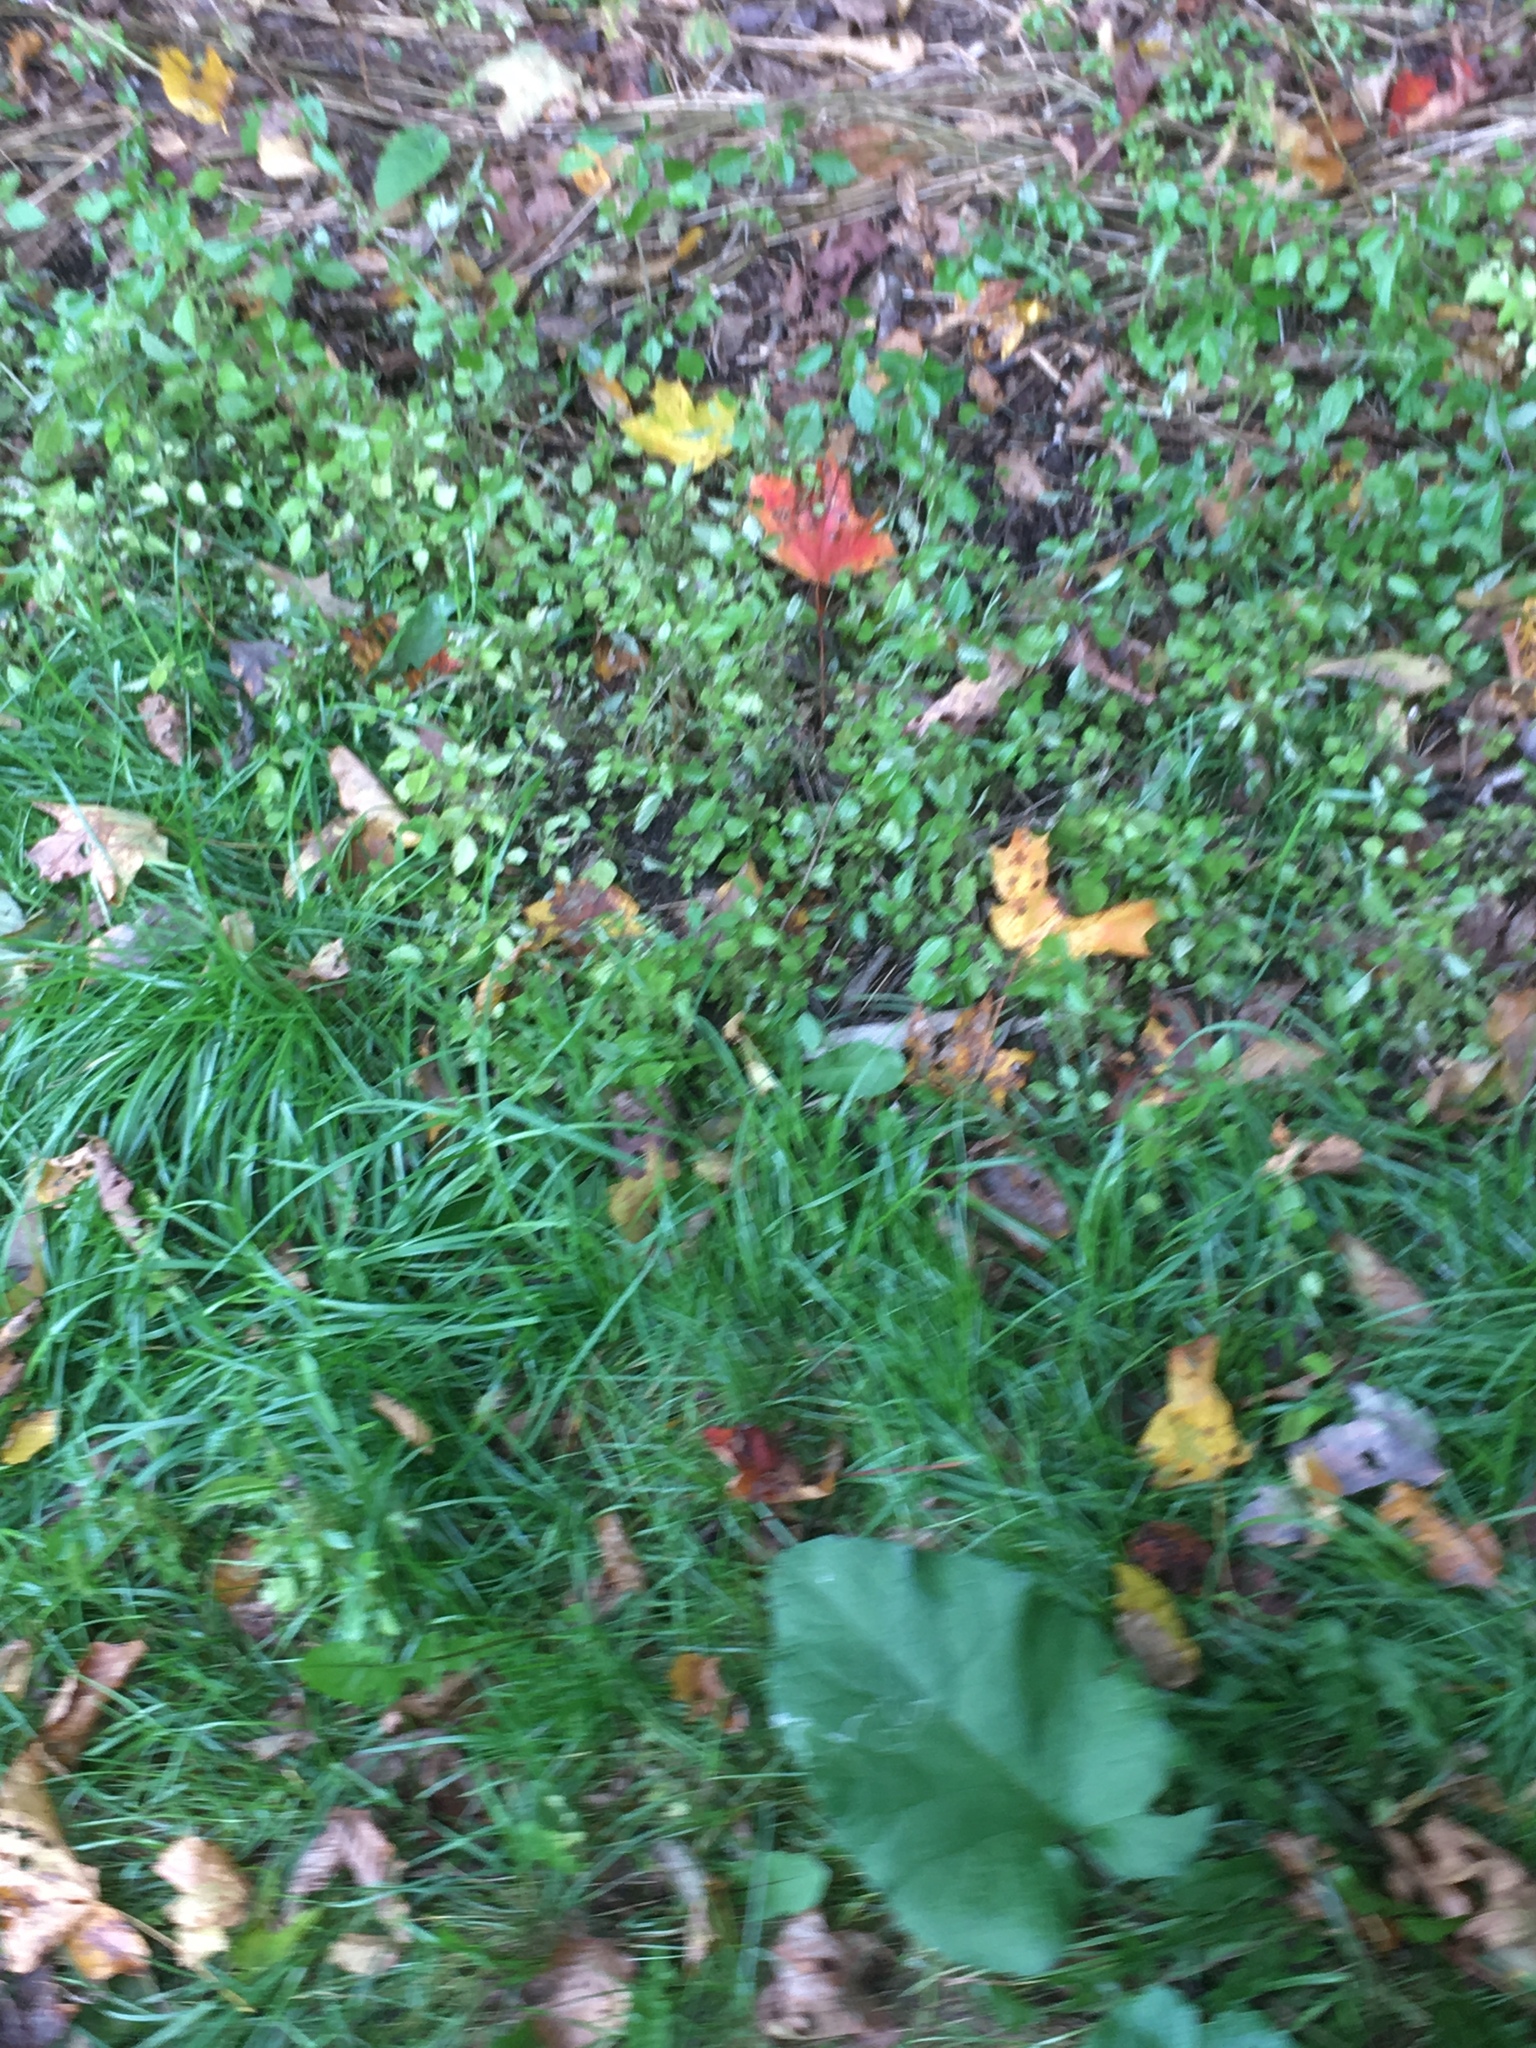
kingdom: Plantae
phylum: Tracheophyta
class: Magnoliopsida
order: Rosales
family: Urticaceae
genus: Pilea
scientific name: Pilea pumila
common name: Clearweed
